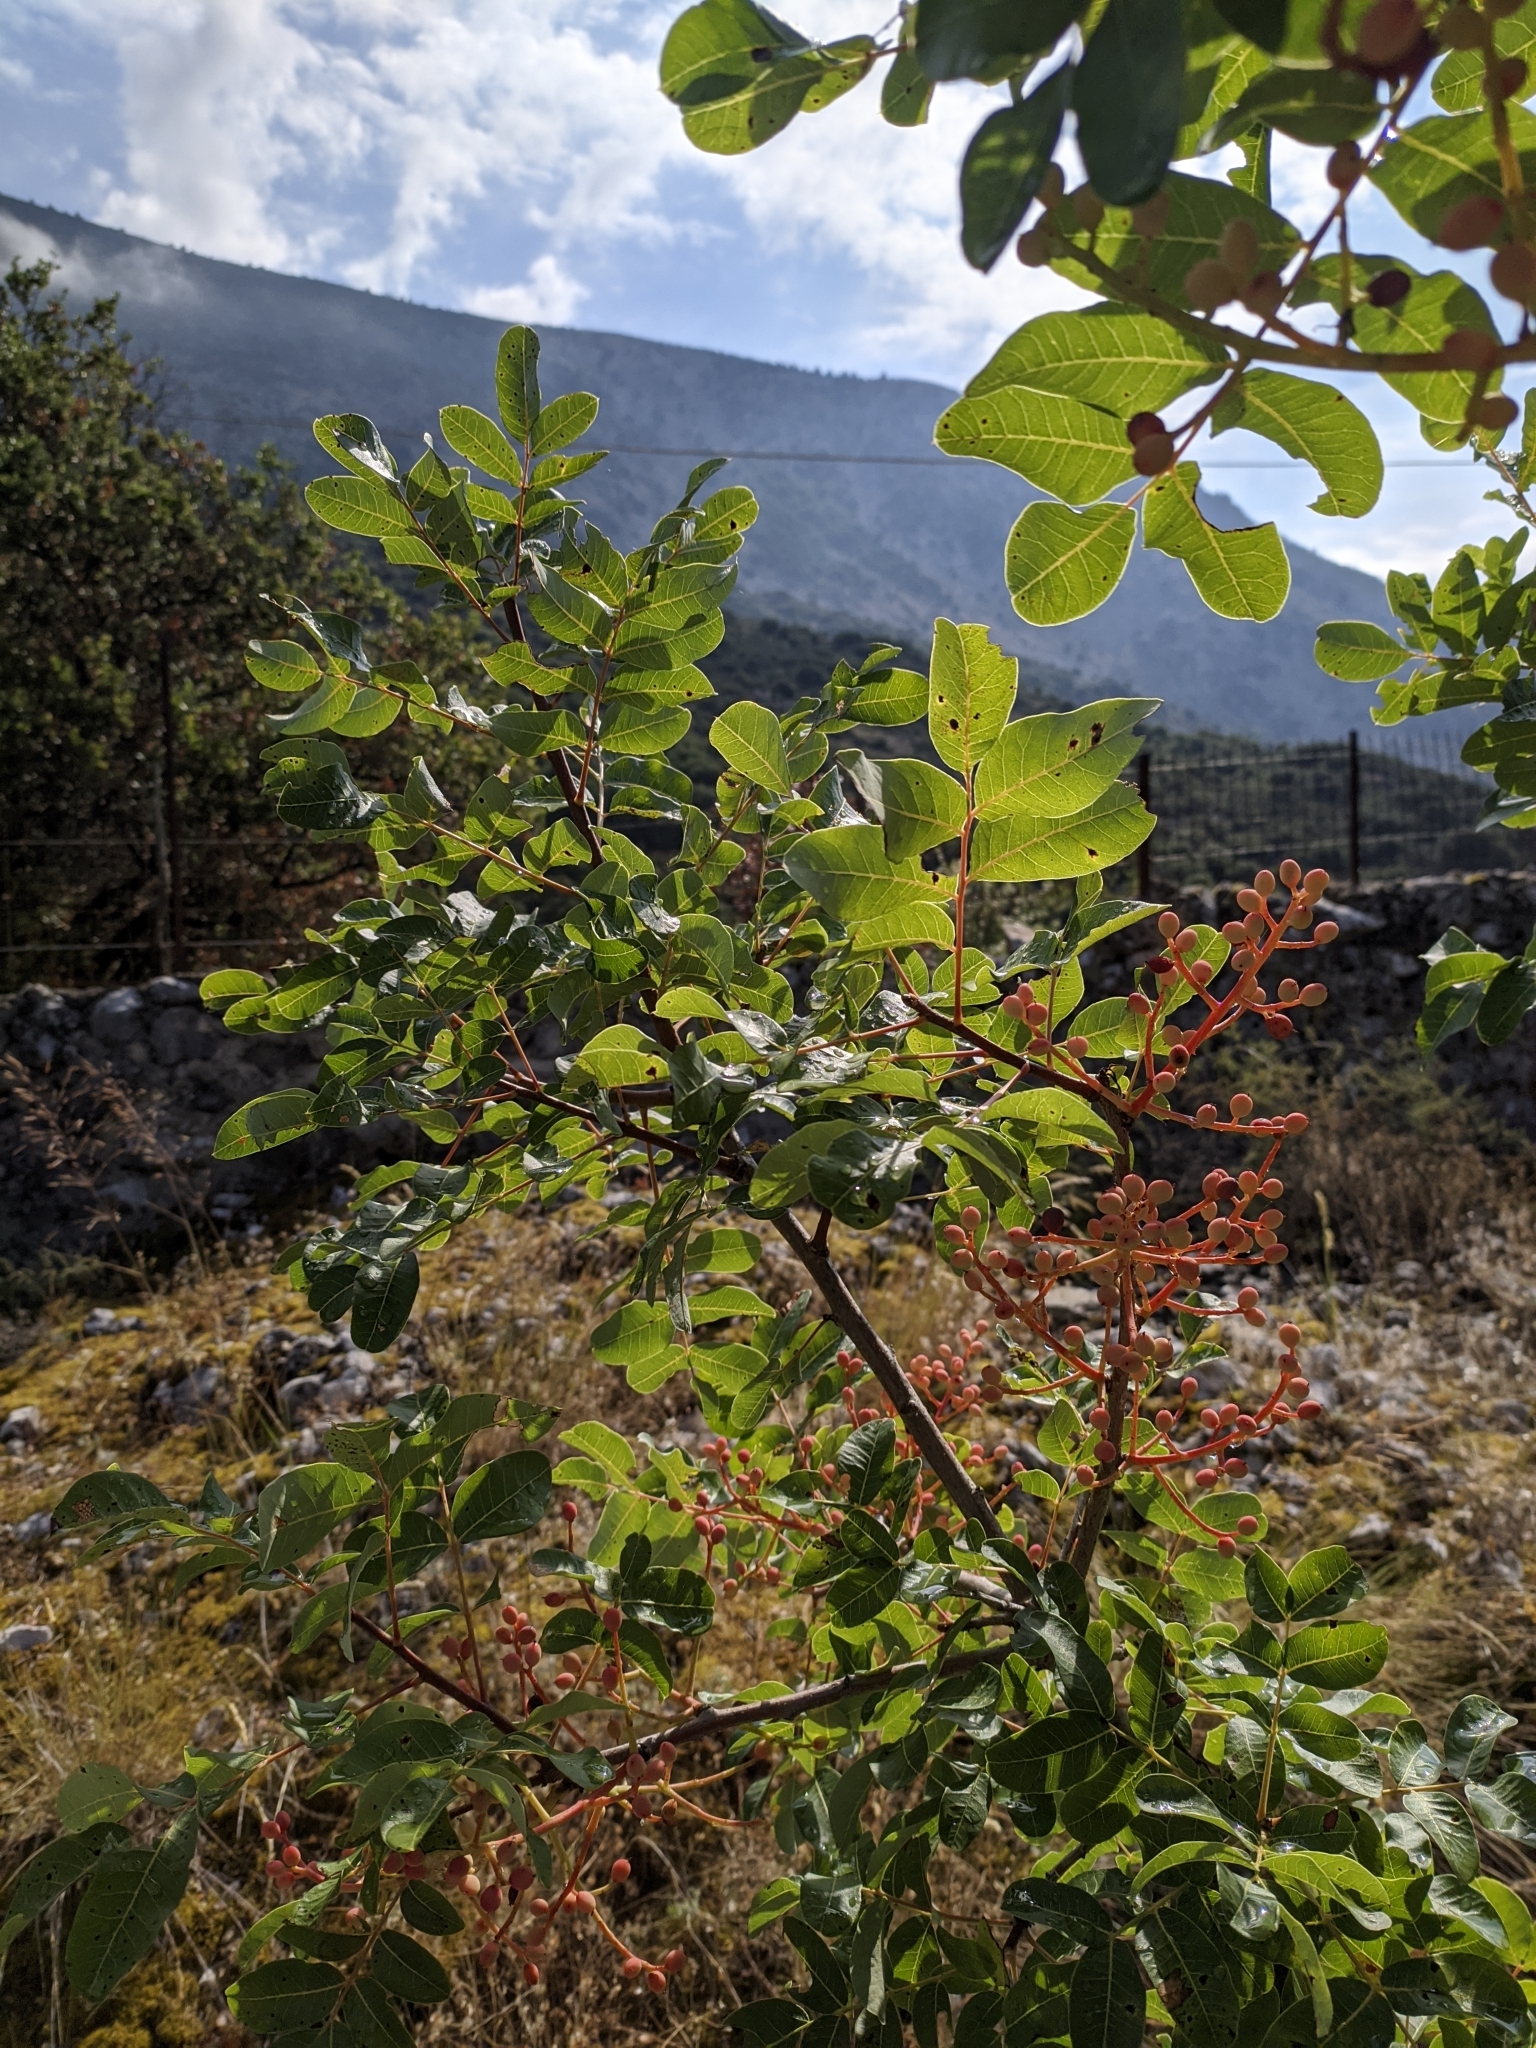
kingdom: Plantae
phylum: Tracheophyta
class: Magnoliopsida
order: Sapindales
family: Anacardiaceae
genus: Pistacia
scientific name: Pistacia terebinthus
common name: Terebinth
